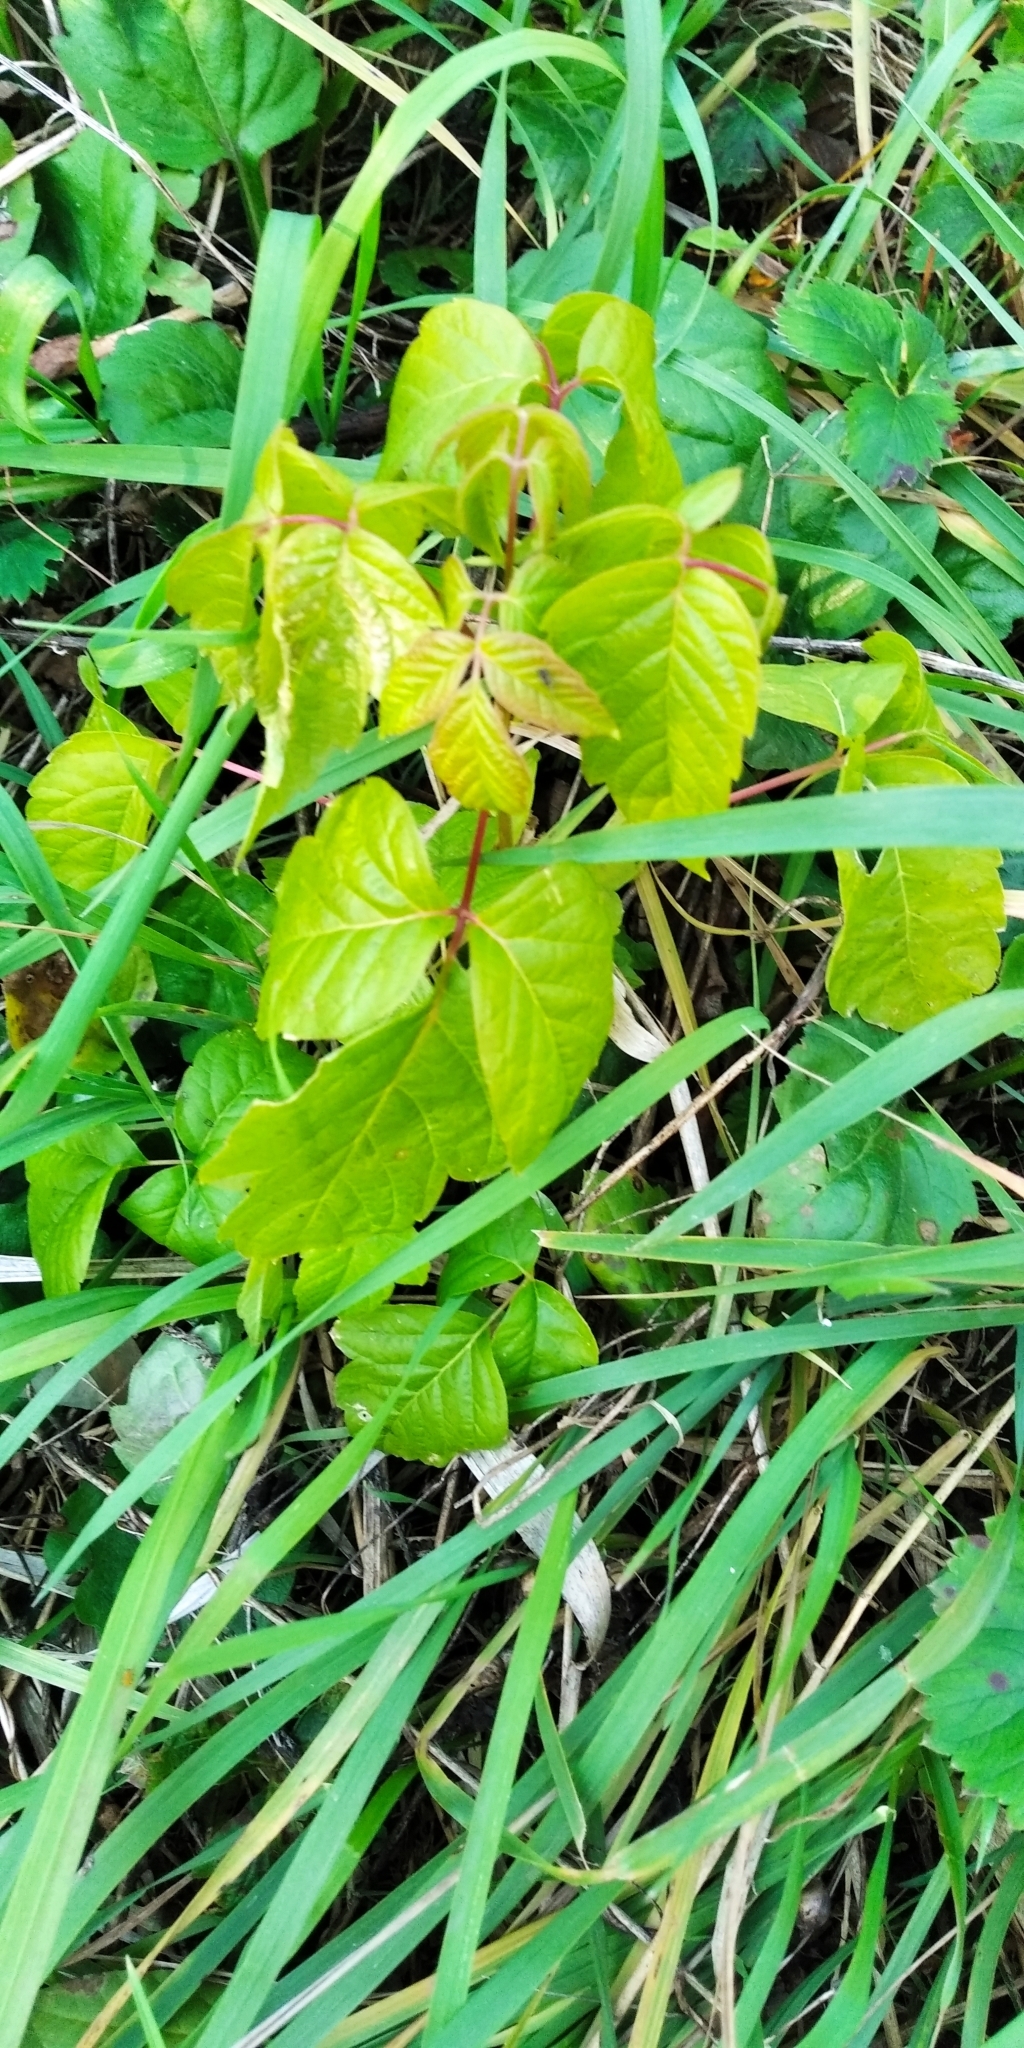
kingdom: Plantae
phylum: Tracheophyta
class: Magnoliopsida
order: Sapindales
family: Sapindaceae
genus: Acer
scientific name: Acer negundo
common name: Ashleaf maple
